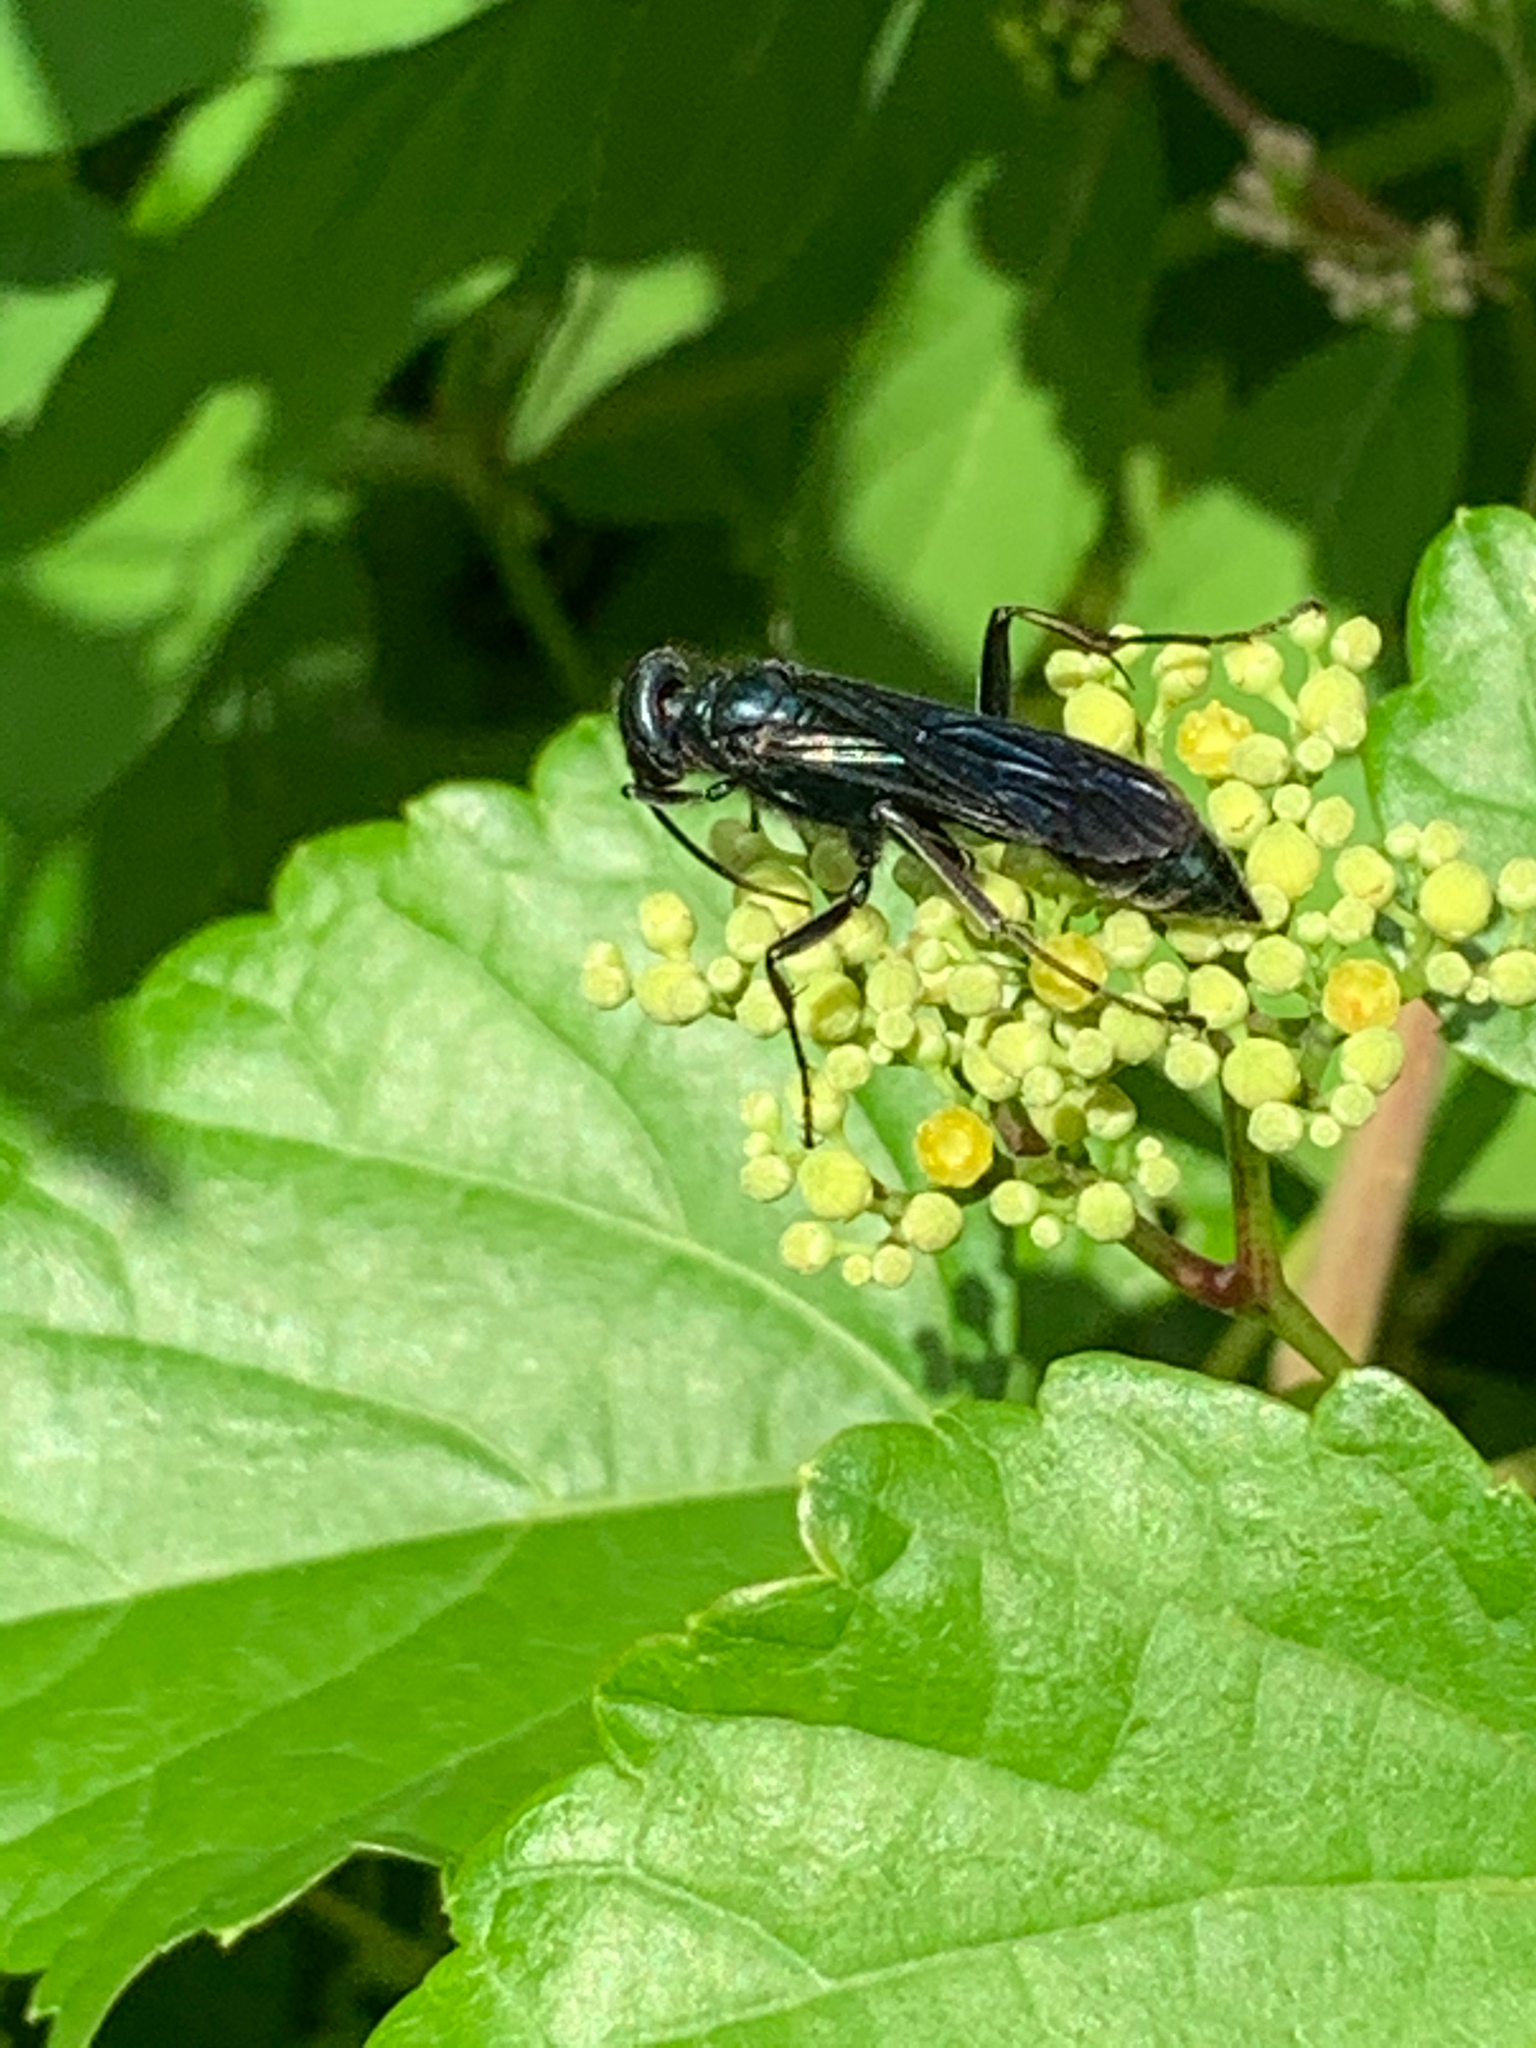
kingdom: Animalia
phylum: Arthropoda
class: Insecta
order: Hymenoptera
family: Sphecidae
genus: Chalybion
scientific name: Chalybion californicum
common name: Mud dauber
